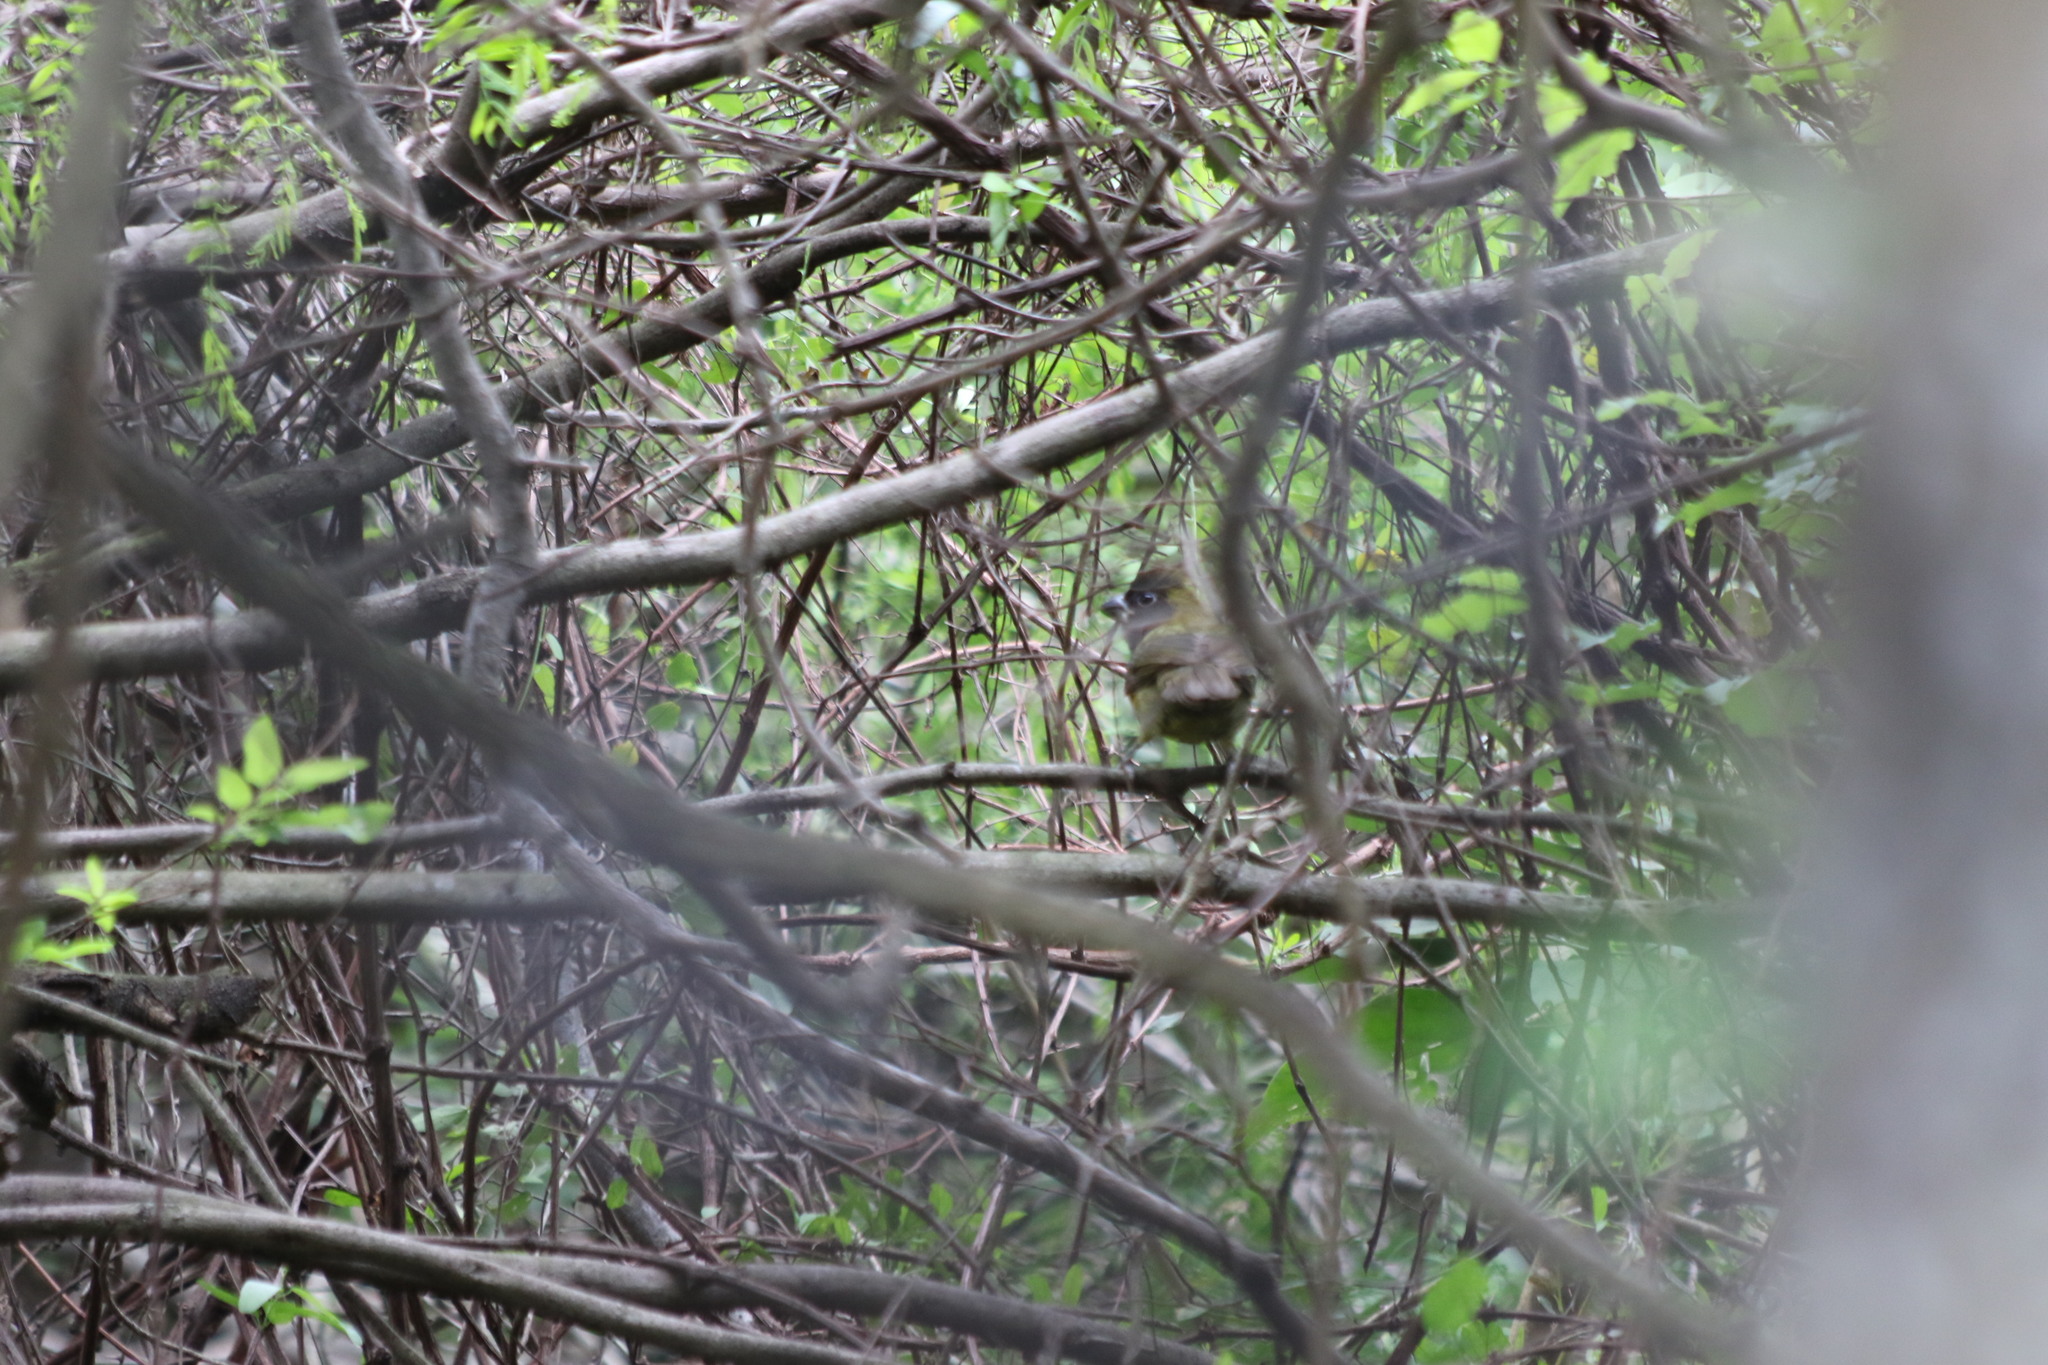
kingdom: Animalia
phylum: Chordata
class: Aves
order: Passeriformes
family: Cardinalidae
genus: Rhodothraupis
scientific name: Rhodothraupis celaeno
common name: Crimson-collared grosbeak
